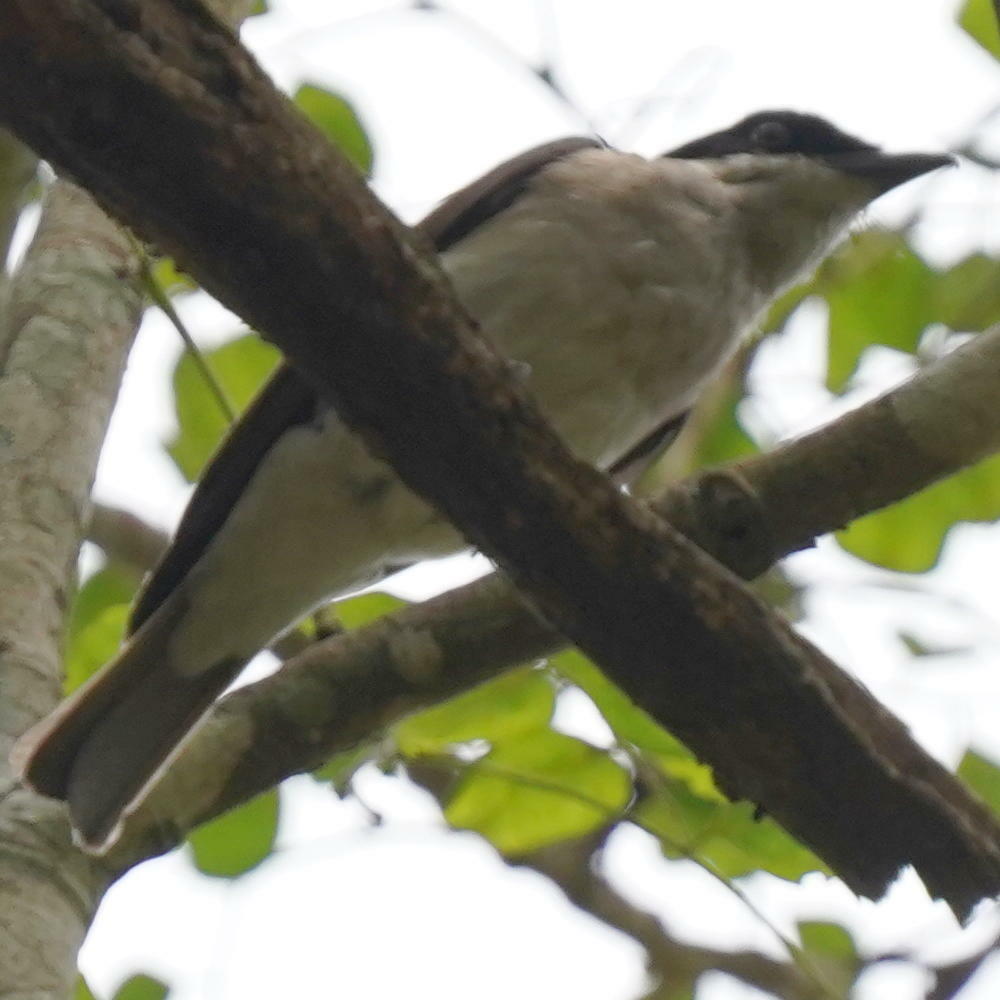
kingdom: Animalia
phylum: Chordata
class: Aves
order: Passeriformes
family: Tephrodornithidae
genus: Tephrodornis
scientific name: Tephrodornis sylvicola
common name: Malabar woodshrike
